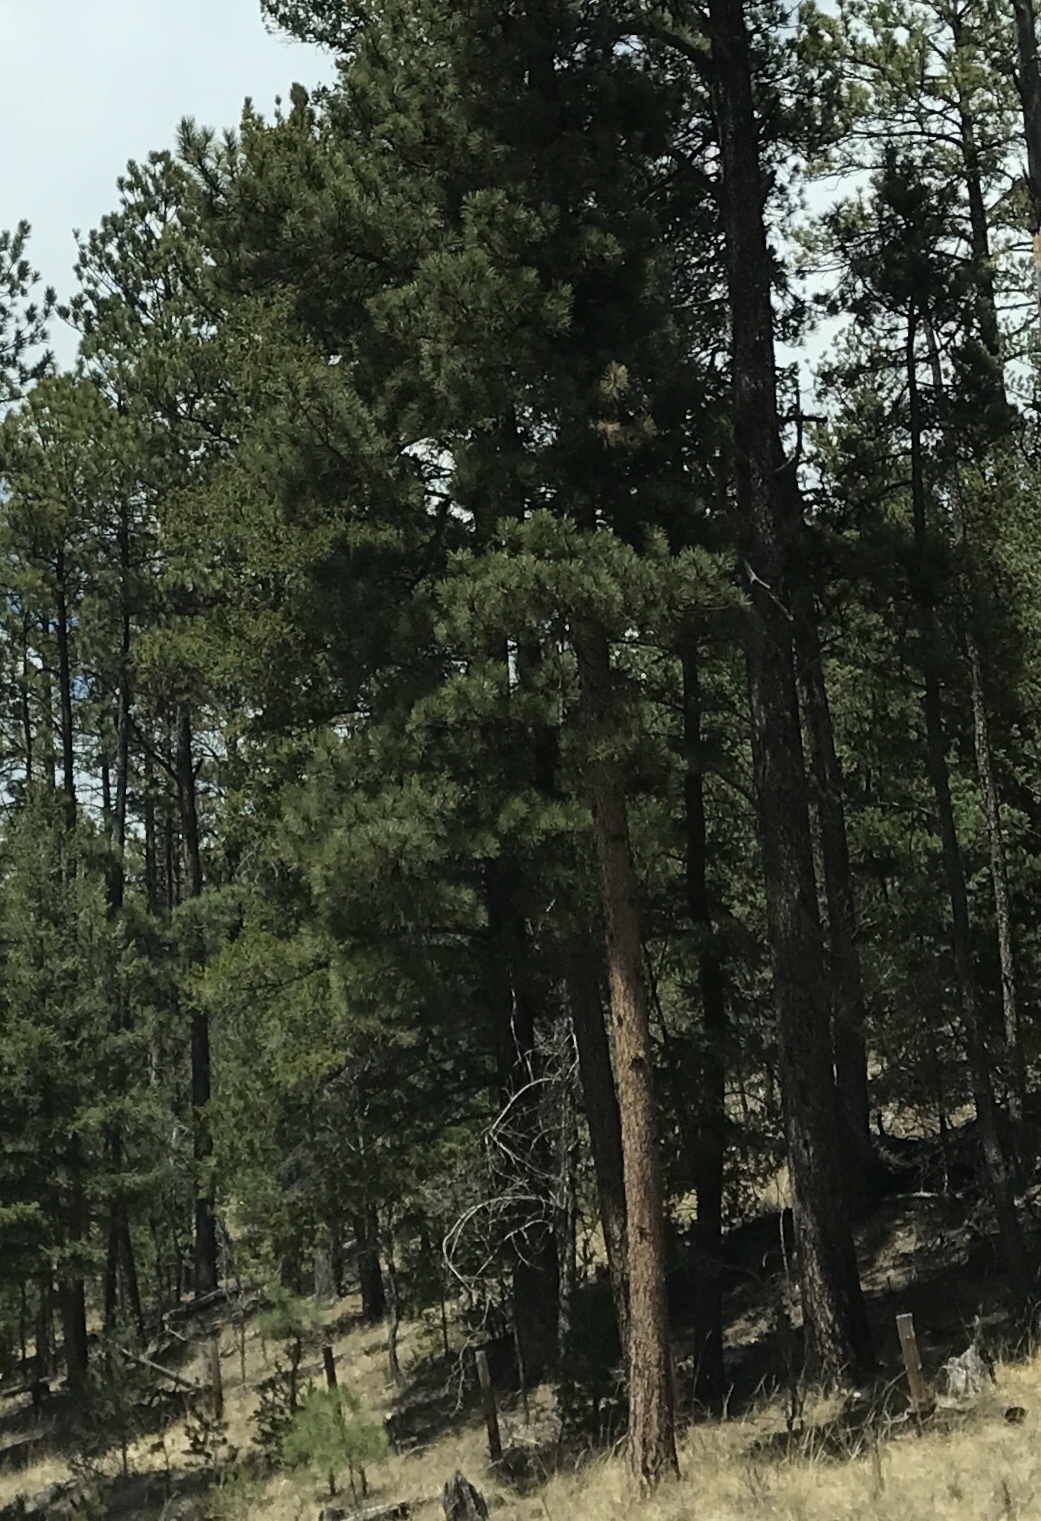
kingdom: Plantae
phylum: Tracheophyta
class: Pinopsida
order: Pinales
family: Pinaceae
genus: Pinus
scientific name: Pinus ponderosa
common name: Western yellow-pine
